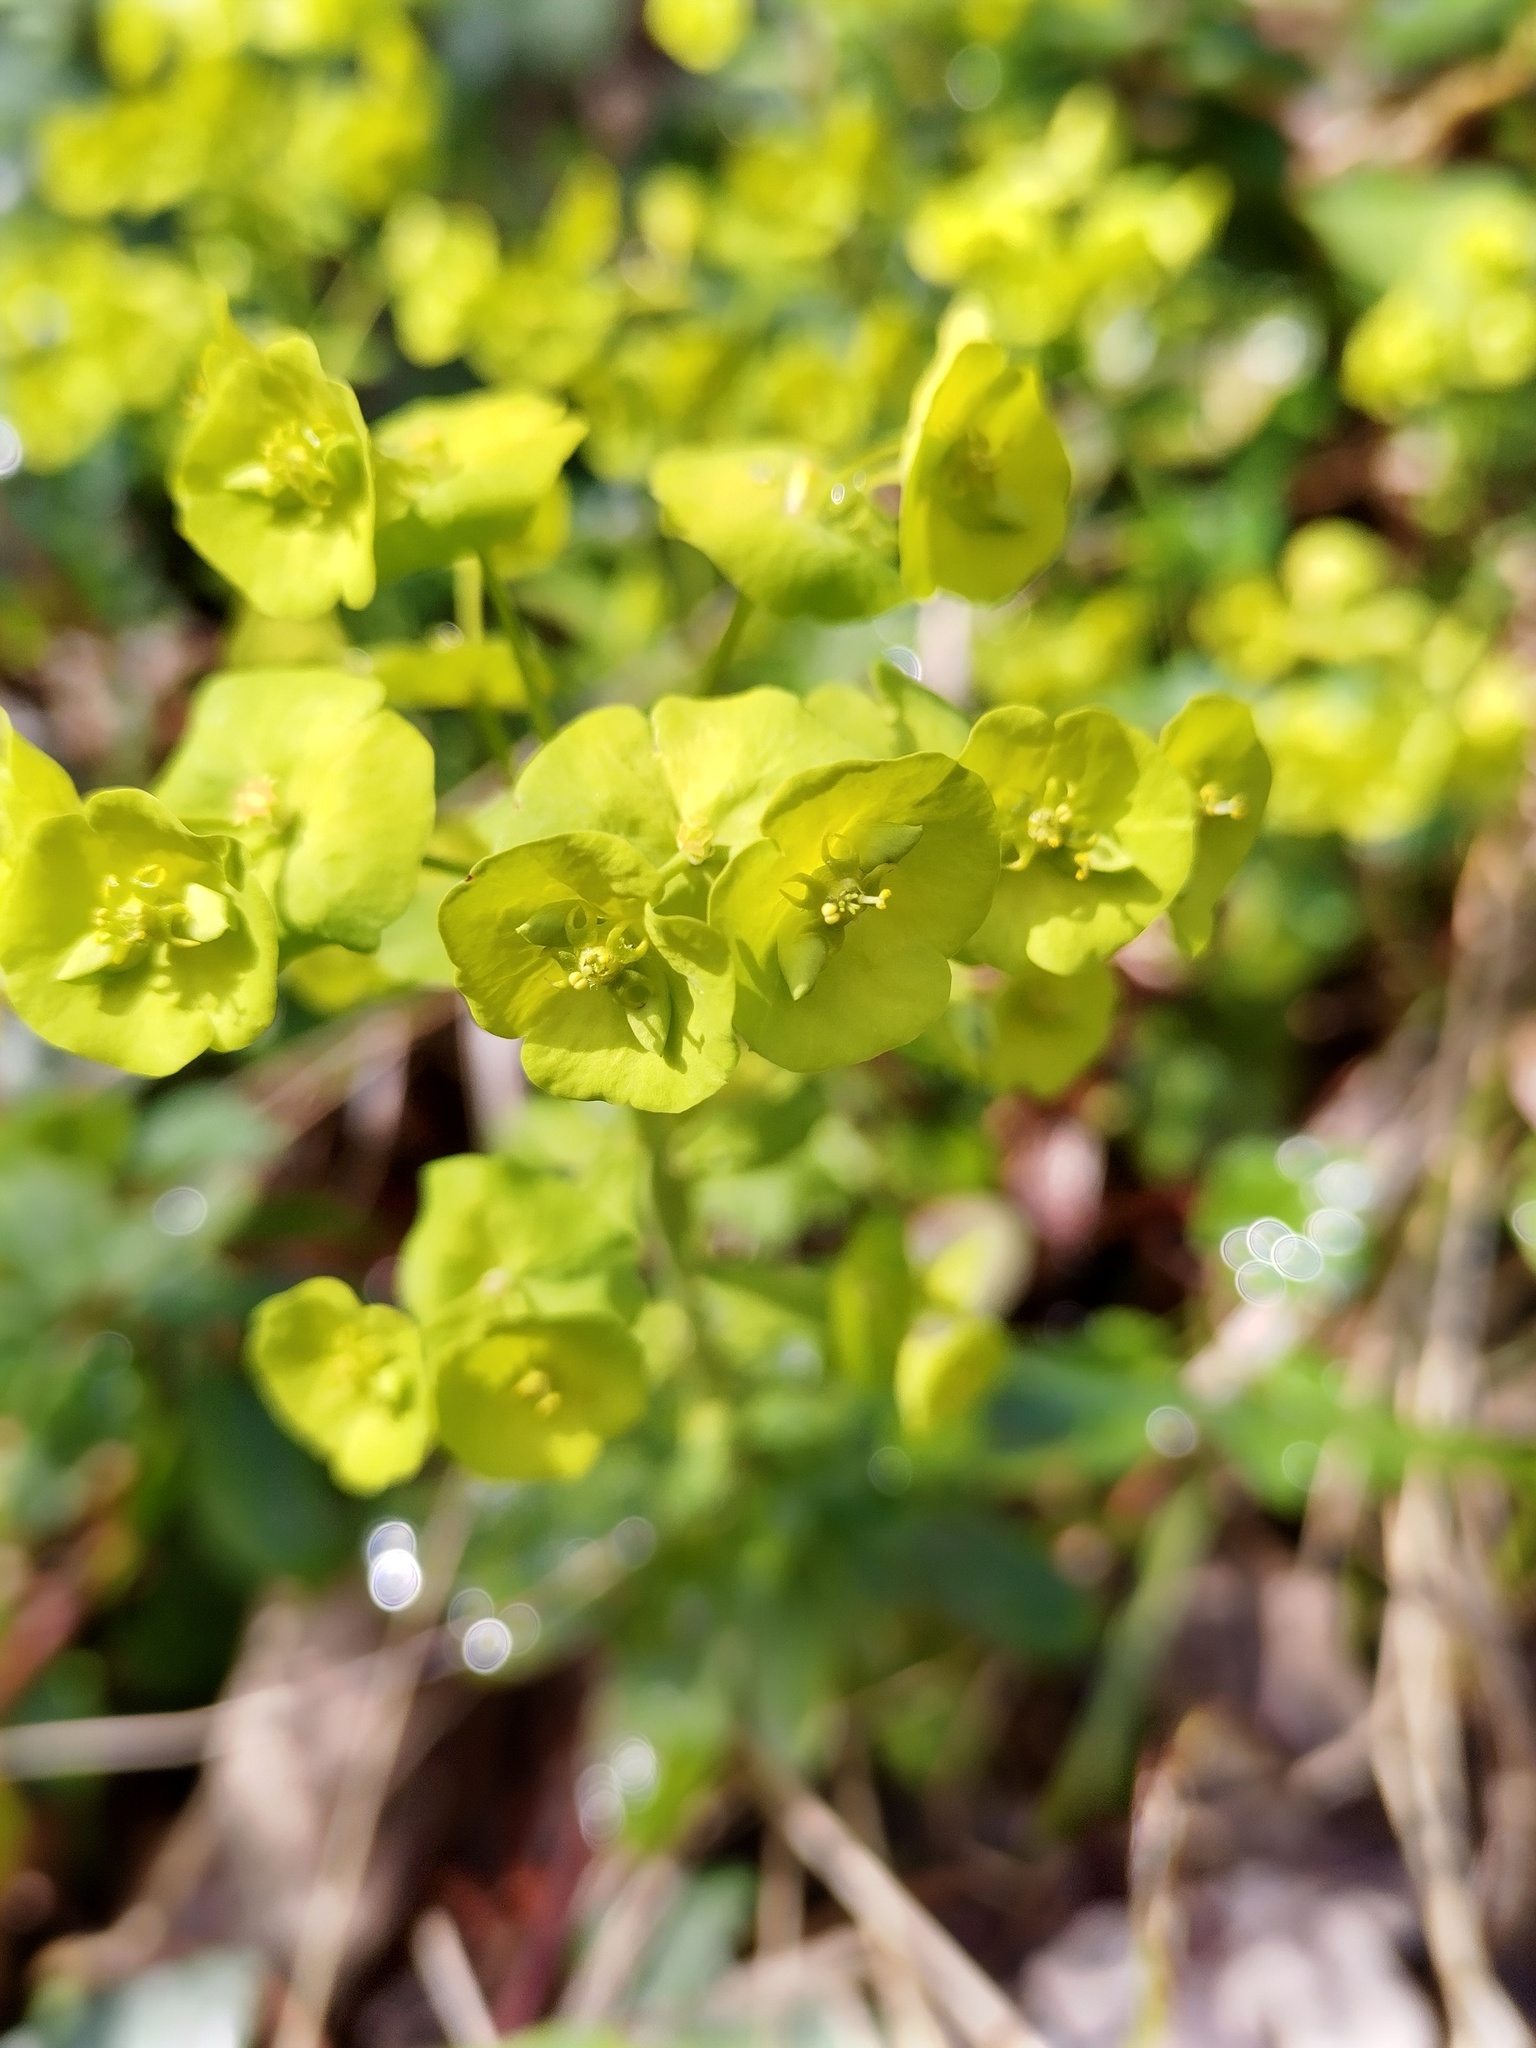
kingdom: Plantae
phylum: Tracheophyta
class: Magnoliopsida
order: Malpighiales
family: Euphorbiaceae
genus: Euphorbia
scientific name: Euphorbia amygdaloides
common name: Wood spurge
